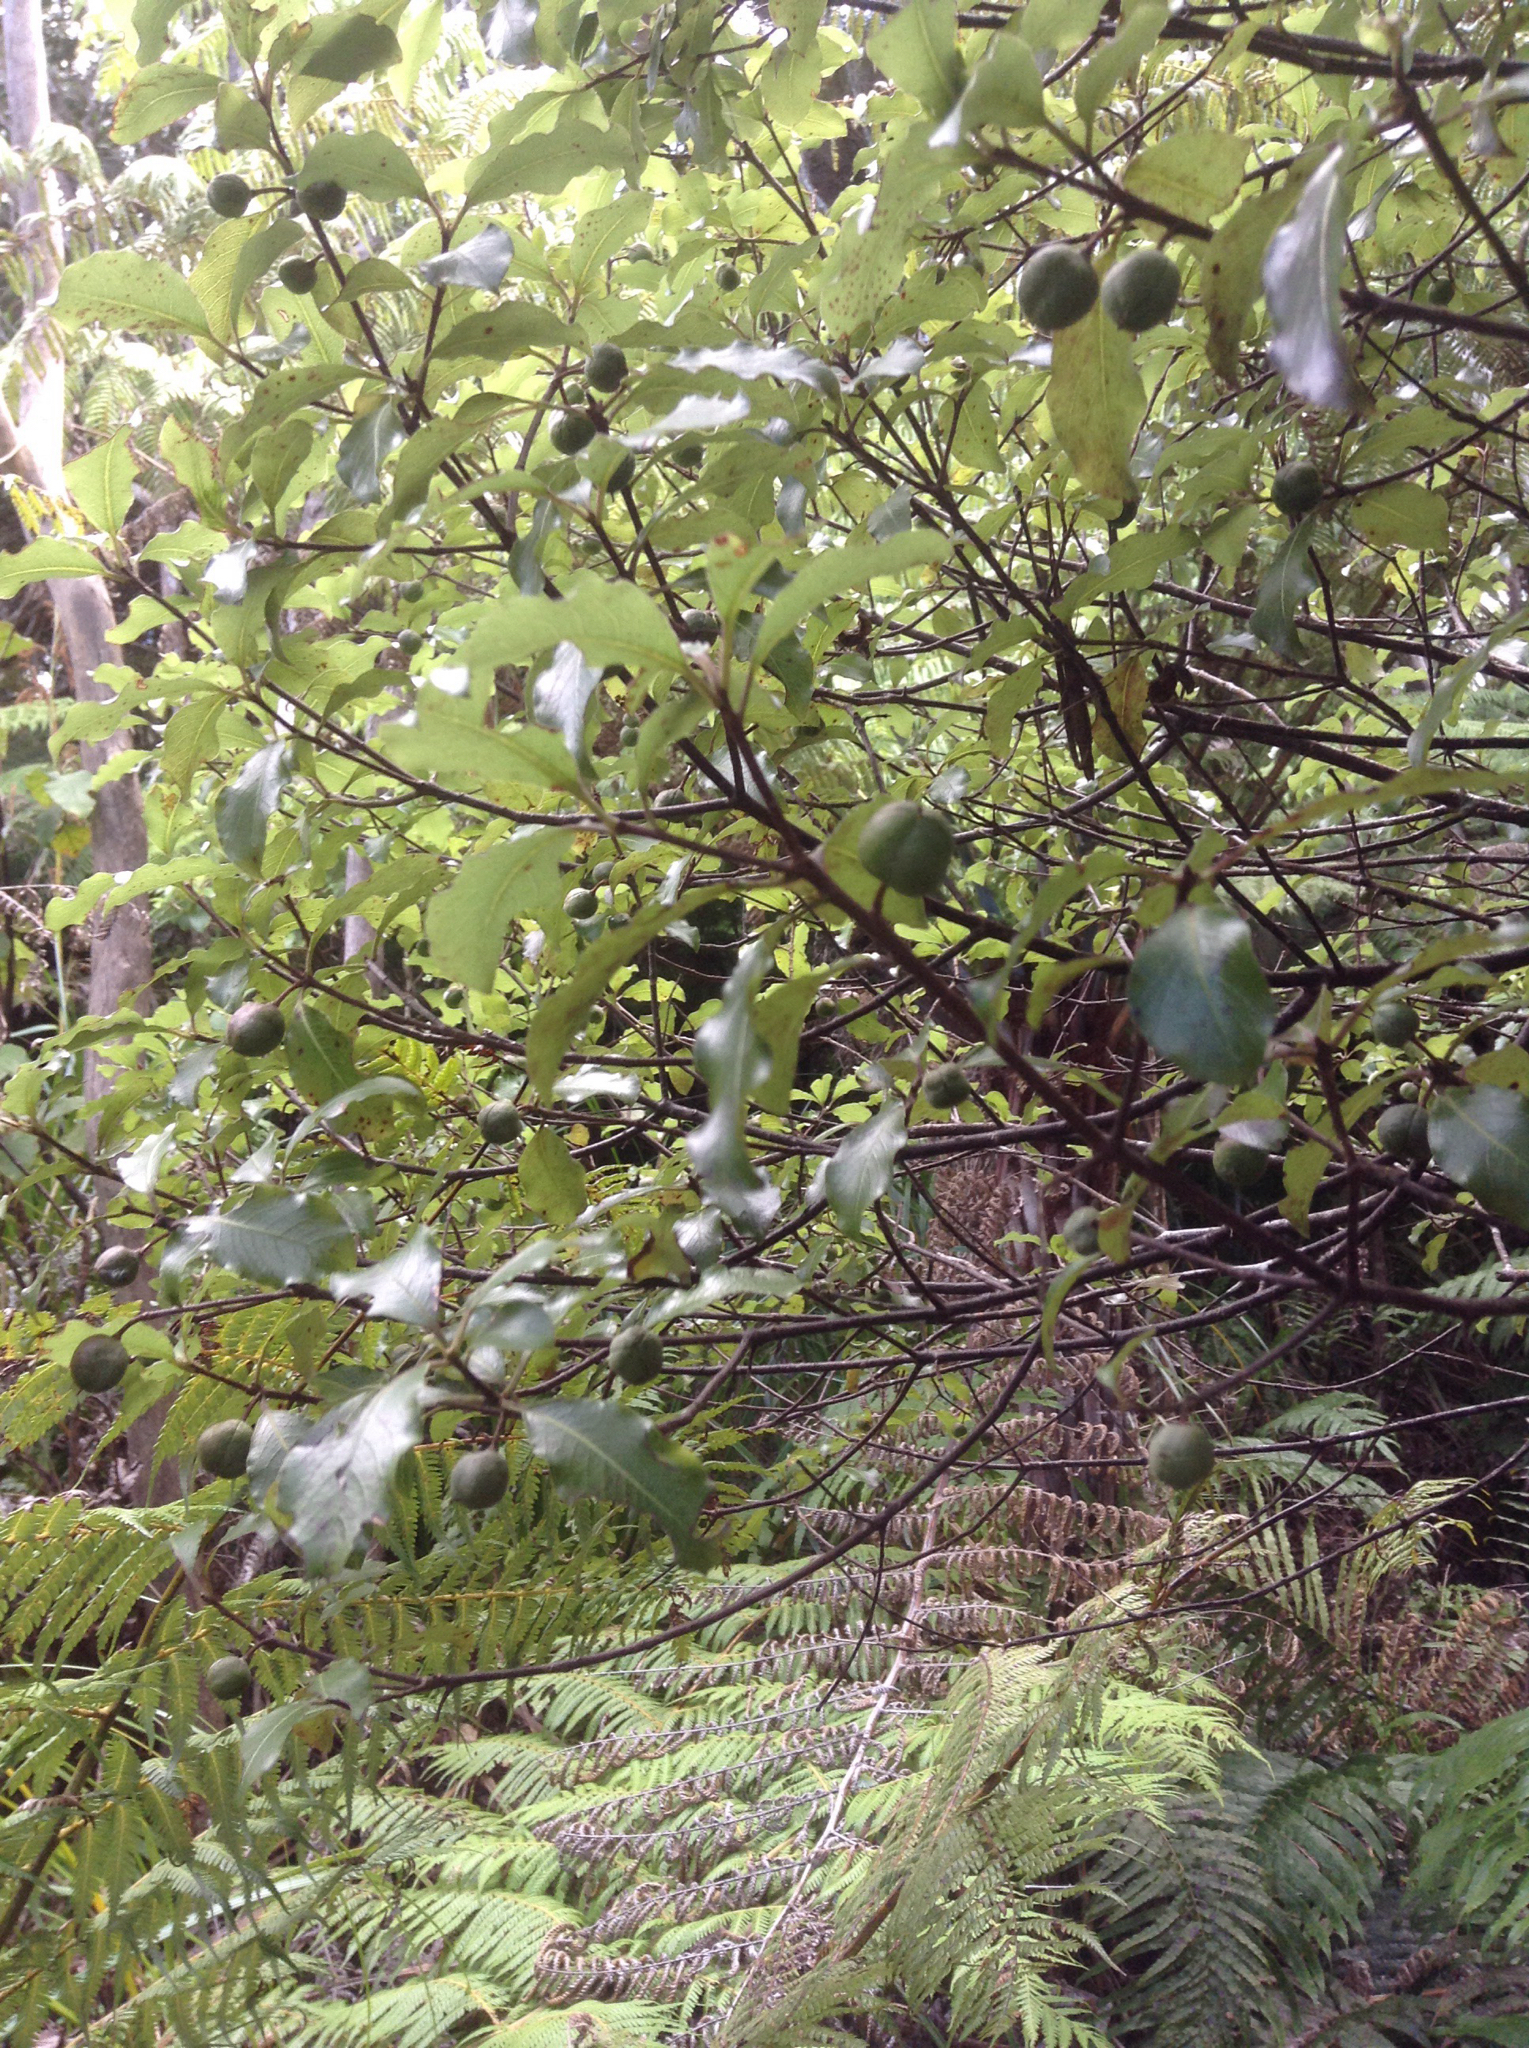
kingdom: Plantae
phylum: Tracheophyta
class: Magnoliopsida
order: Apiales
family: Pittosporaceae
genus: Pittosporum
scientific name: Pittosporum tenuifolium
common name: Kohuhu
